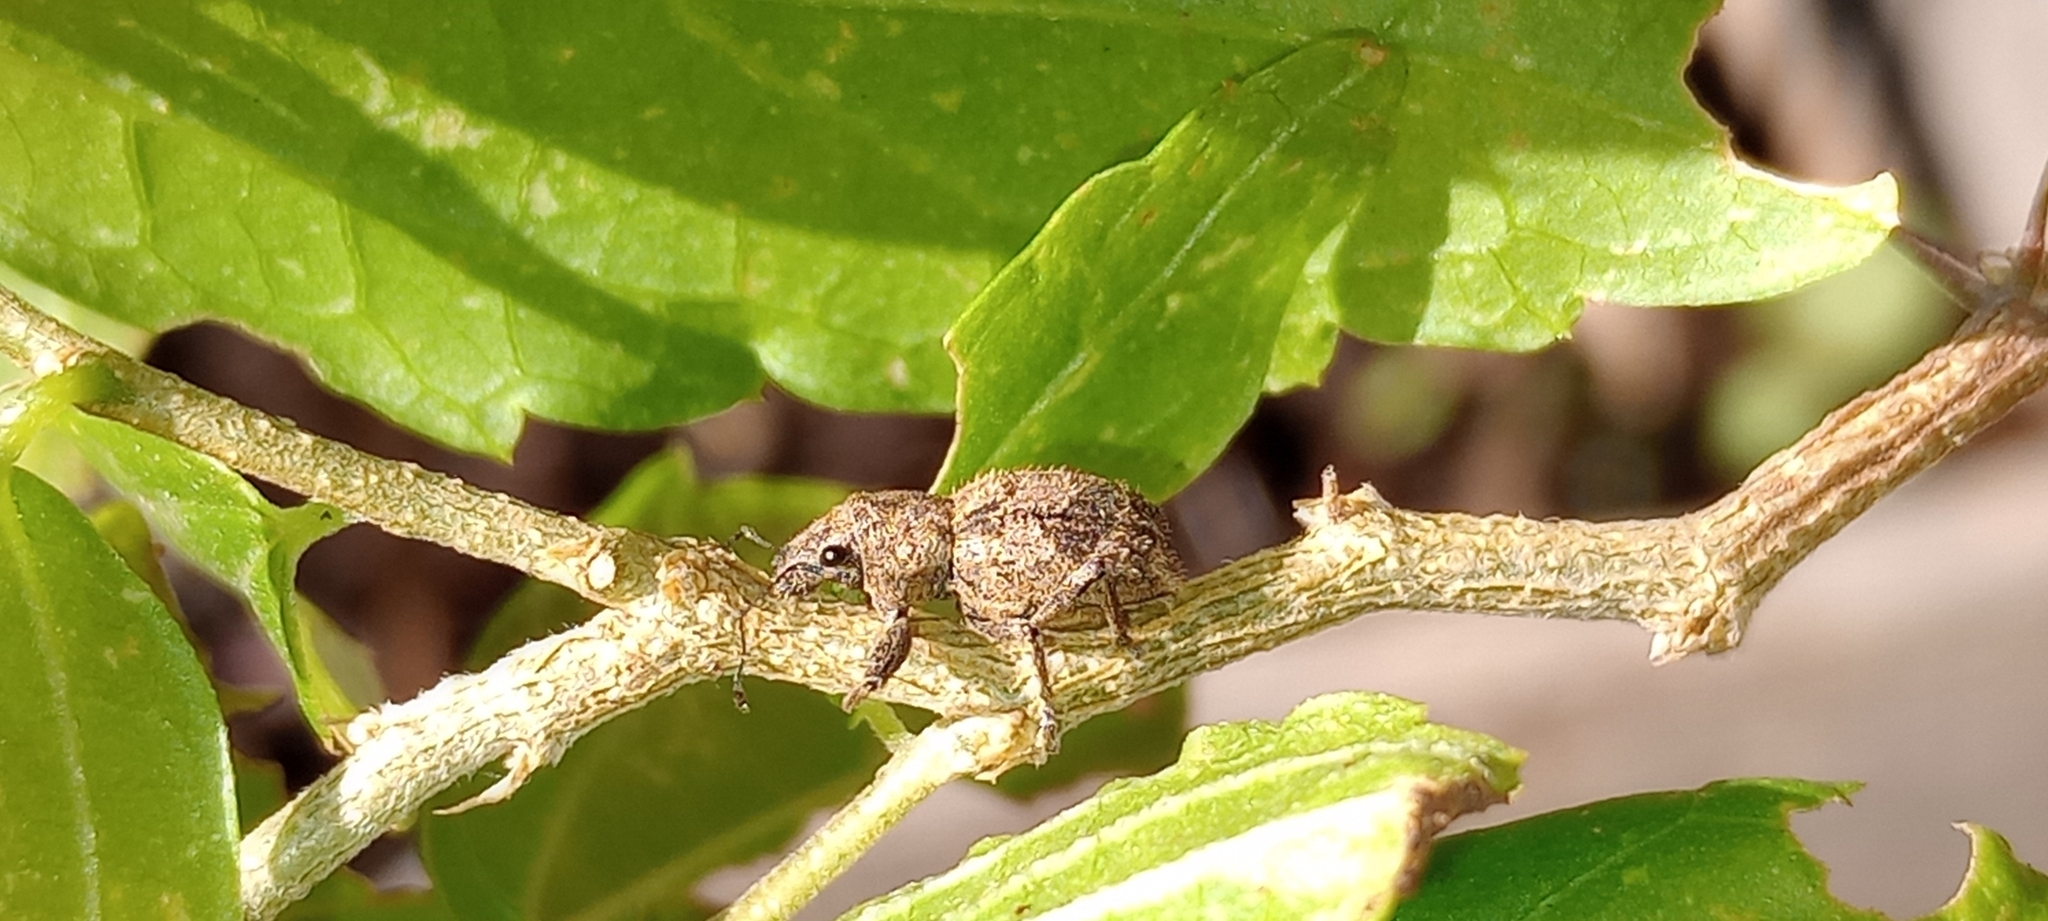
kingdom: Animalia
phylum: Arthropoda
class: Insecta
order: Coleoptera
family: Curculionidae
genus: Pantomorus
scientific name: Pantomorus
